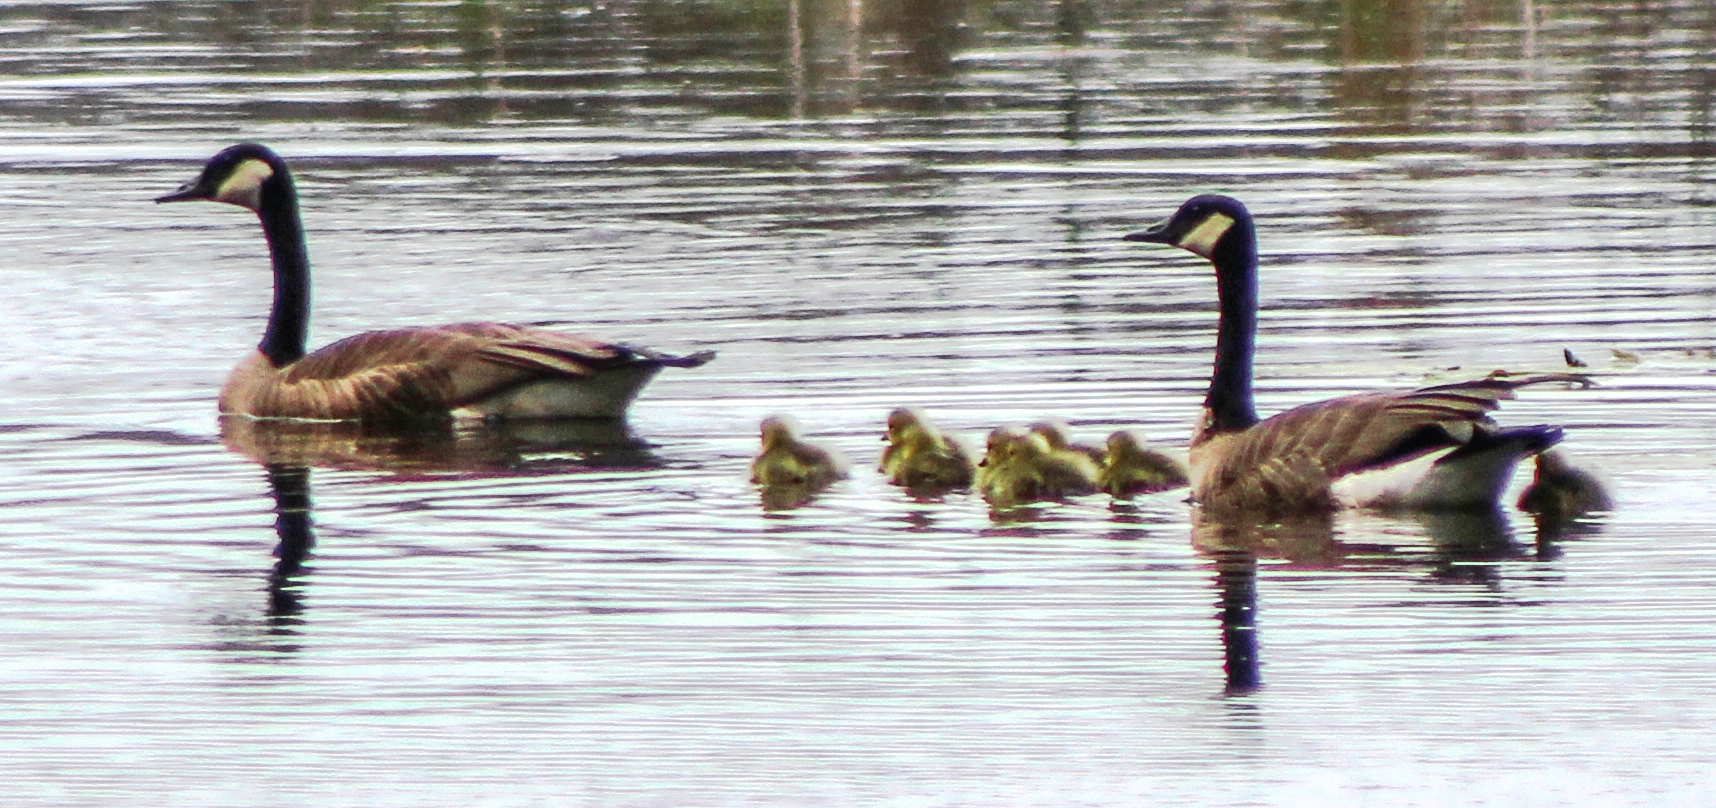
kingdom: Animalia
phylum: Chordata
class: Aves
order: Anseriformes
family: Anatidae
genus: Branta
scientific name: Branta canadensis
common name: Canada goose
